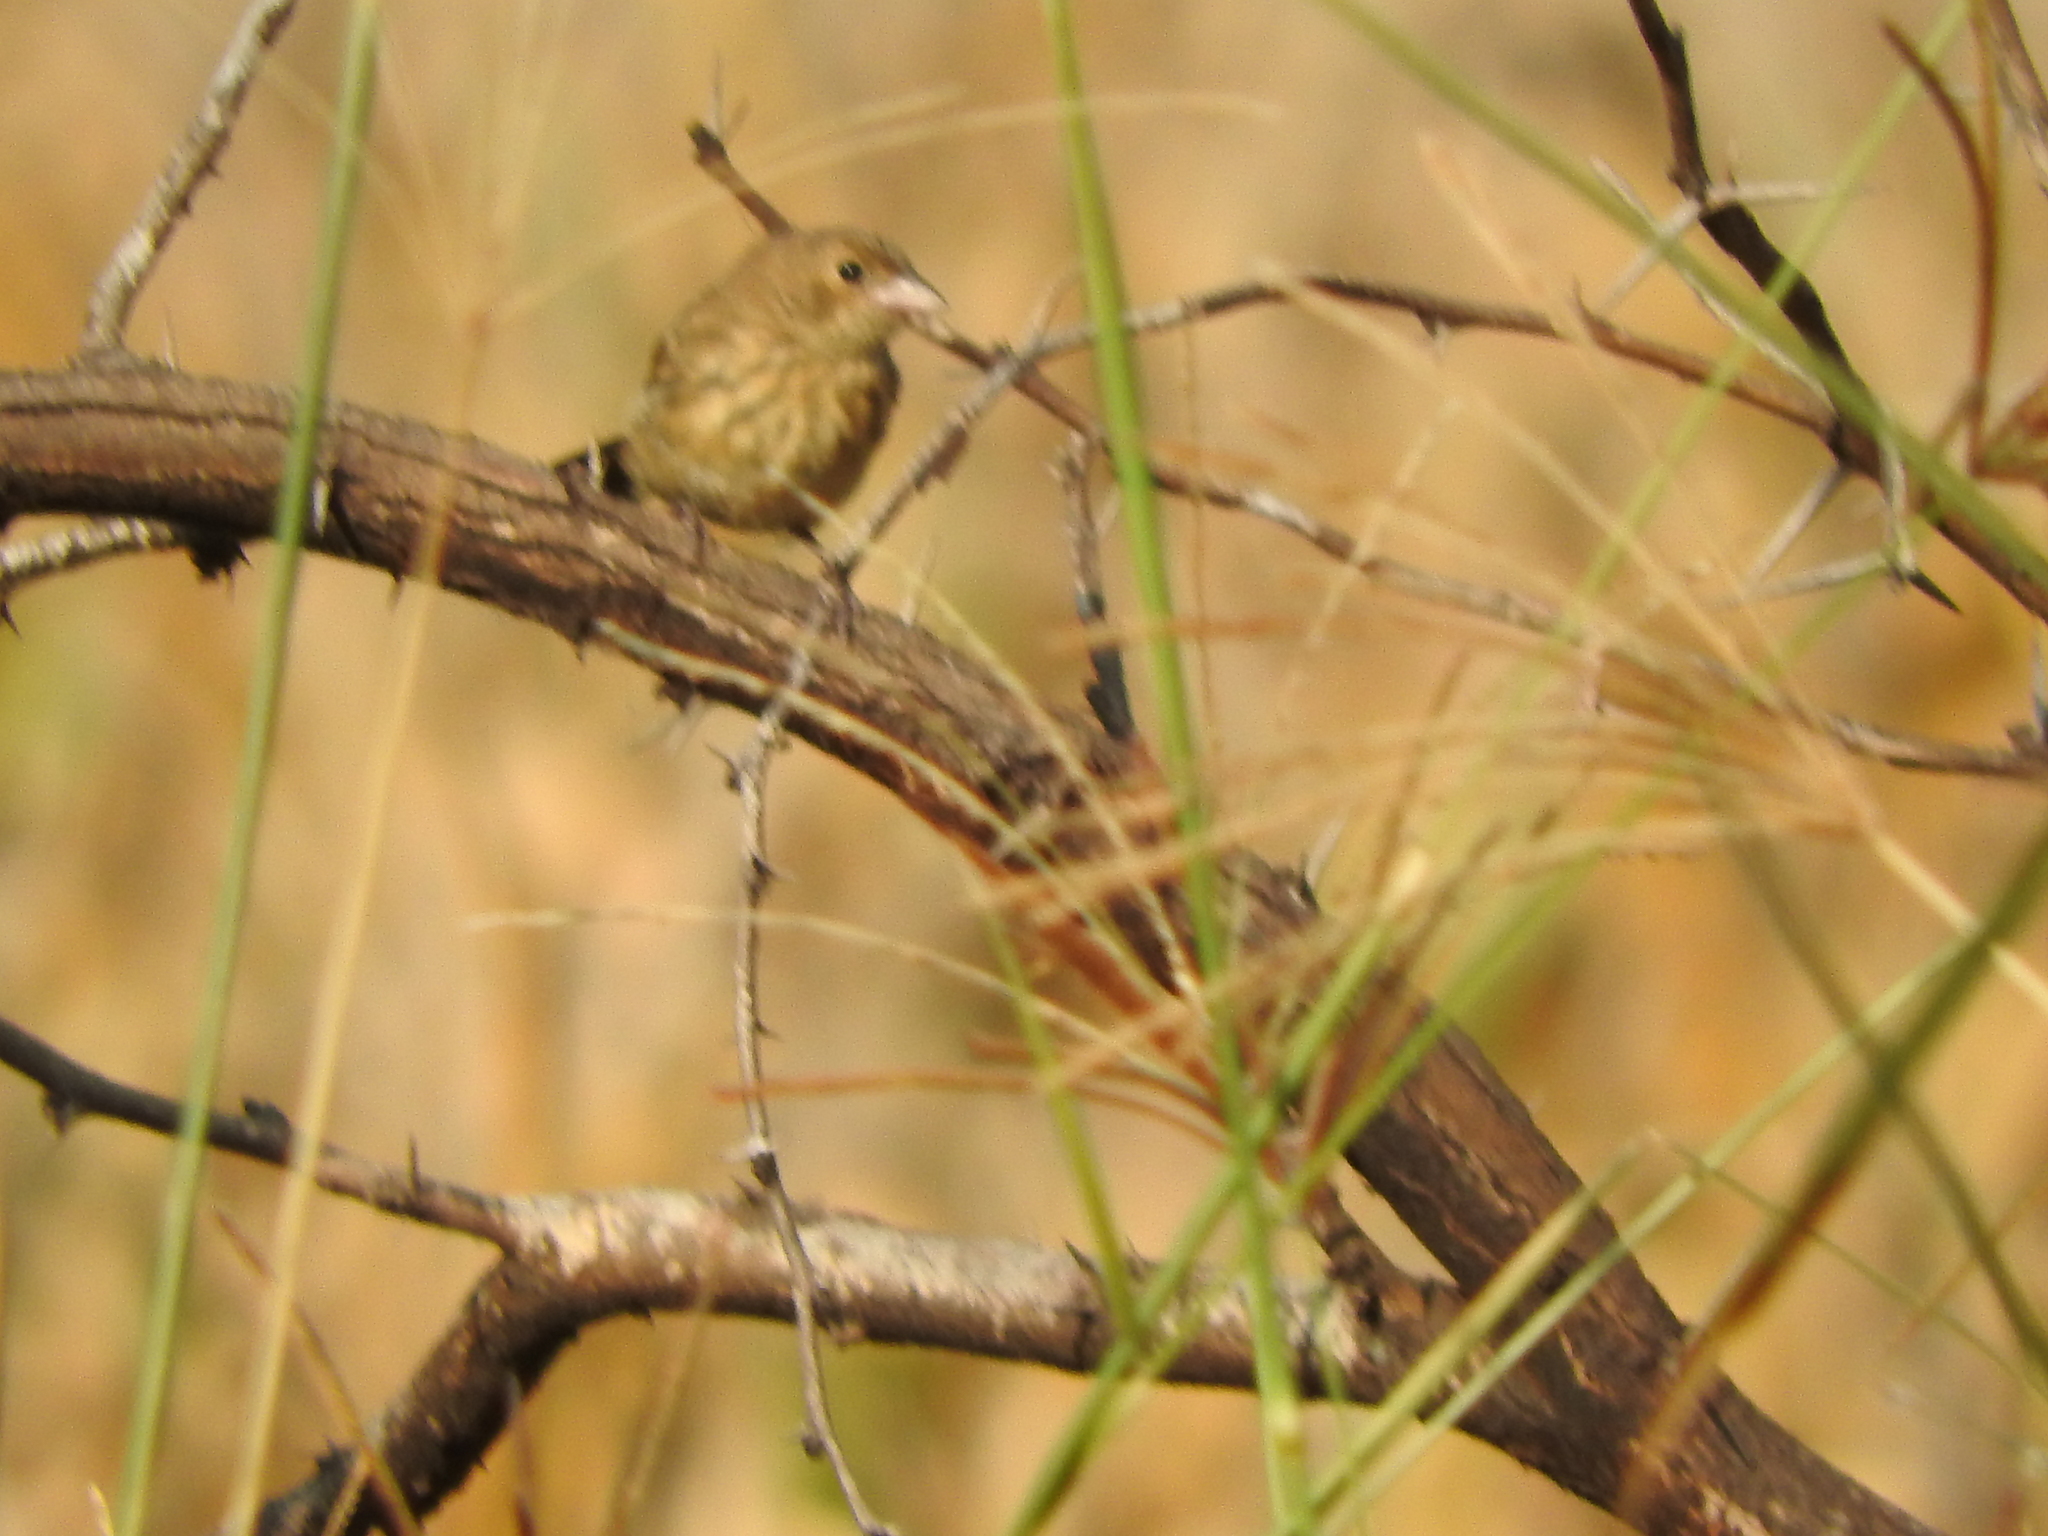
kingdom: Animalia
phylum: Chordata
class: Aves
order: Passeriformes
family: Thraupidae
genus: Volatinia
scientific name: Volatinia jacarina
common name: Blue-black grassquit
